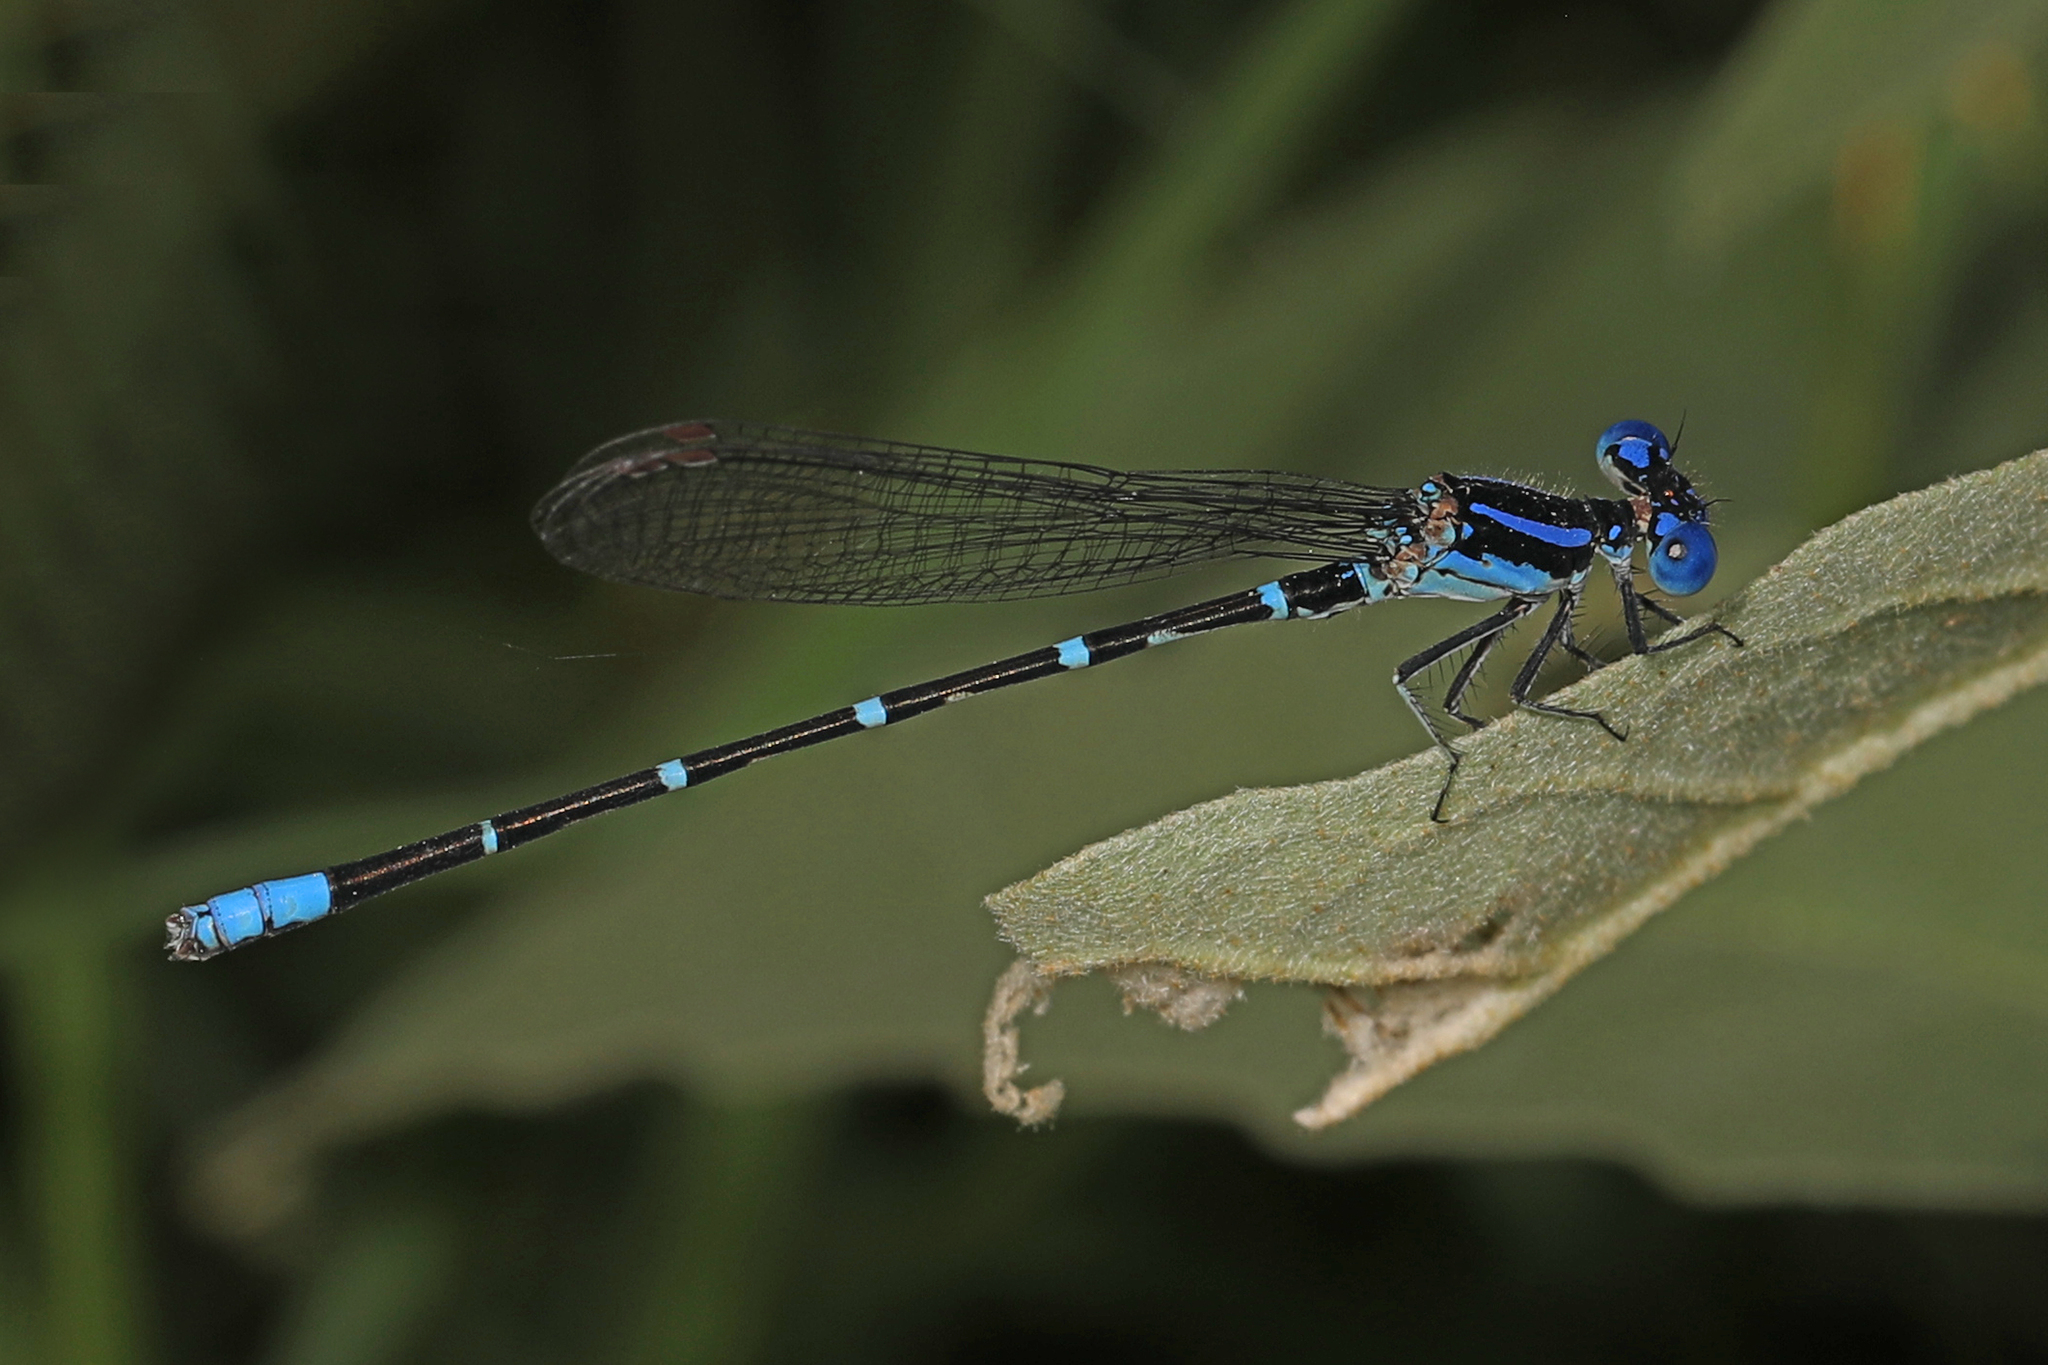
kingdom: Animalia
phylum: Arthropoda
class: Insecta
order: Odonata
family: Coenagrionidae
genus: Argia
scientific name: Argia sedula
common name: Blue-ringed dancer
